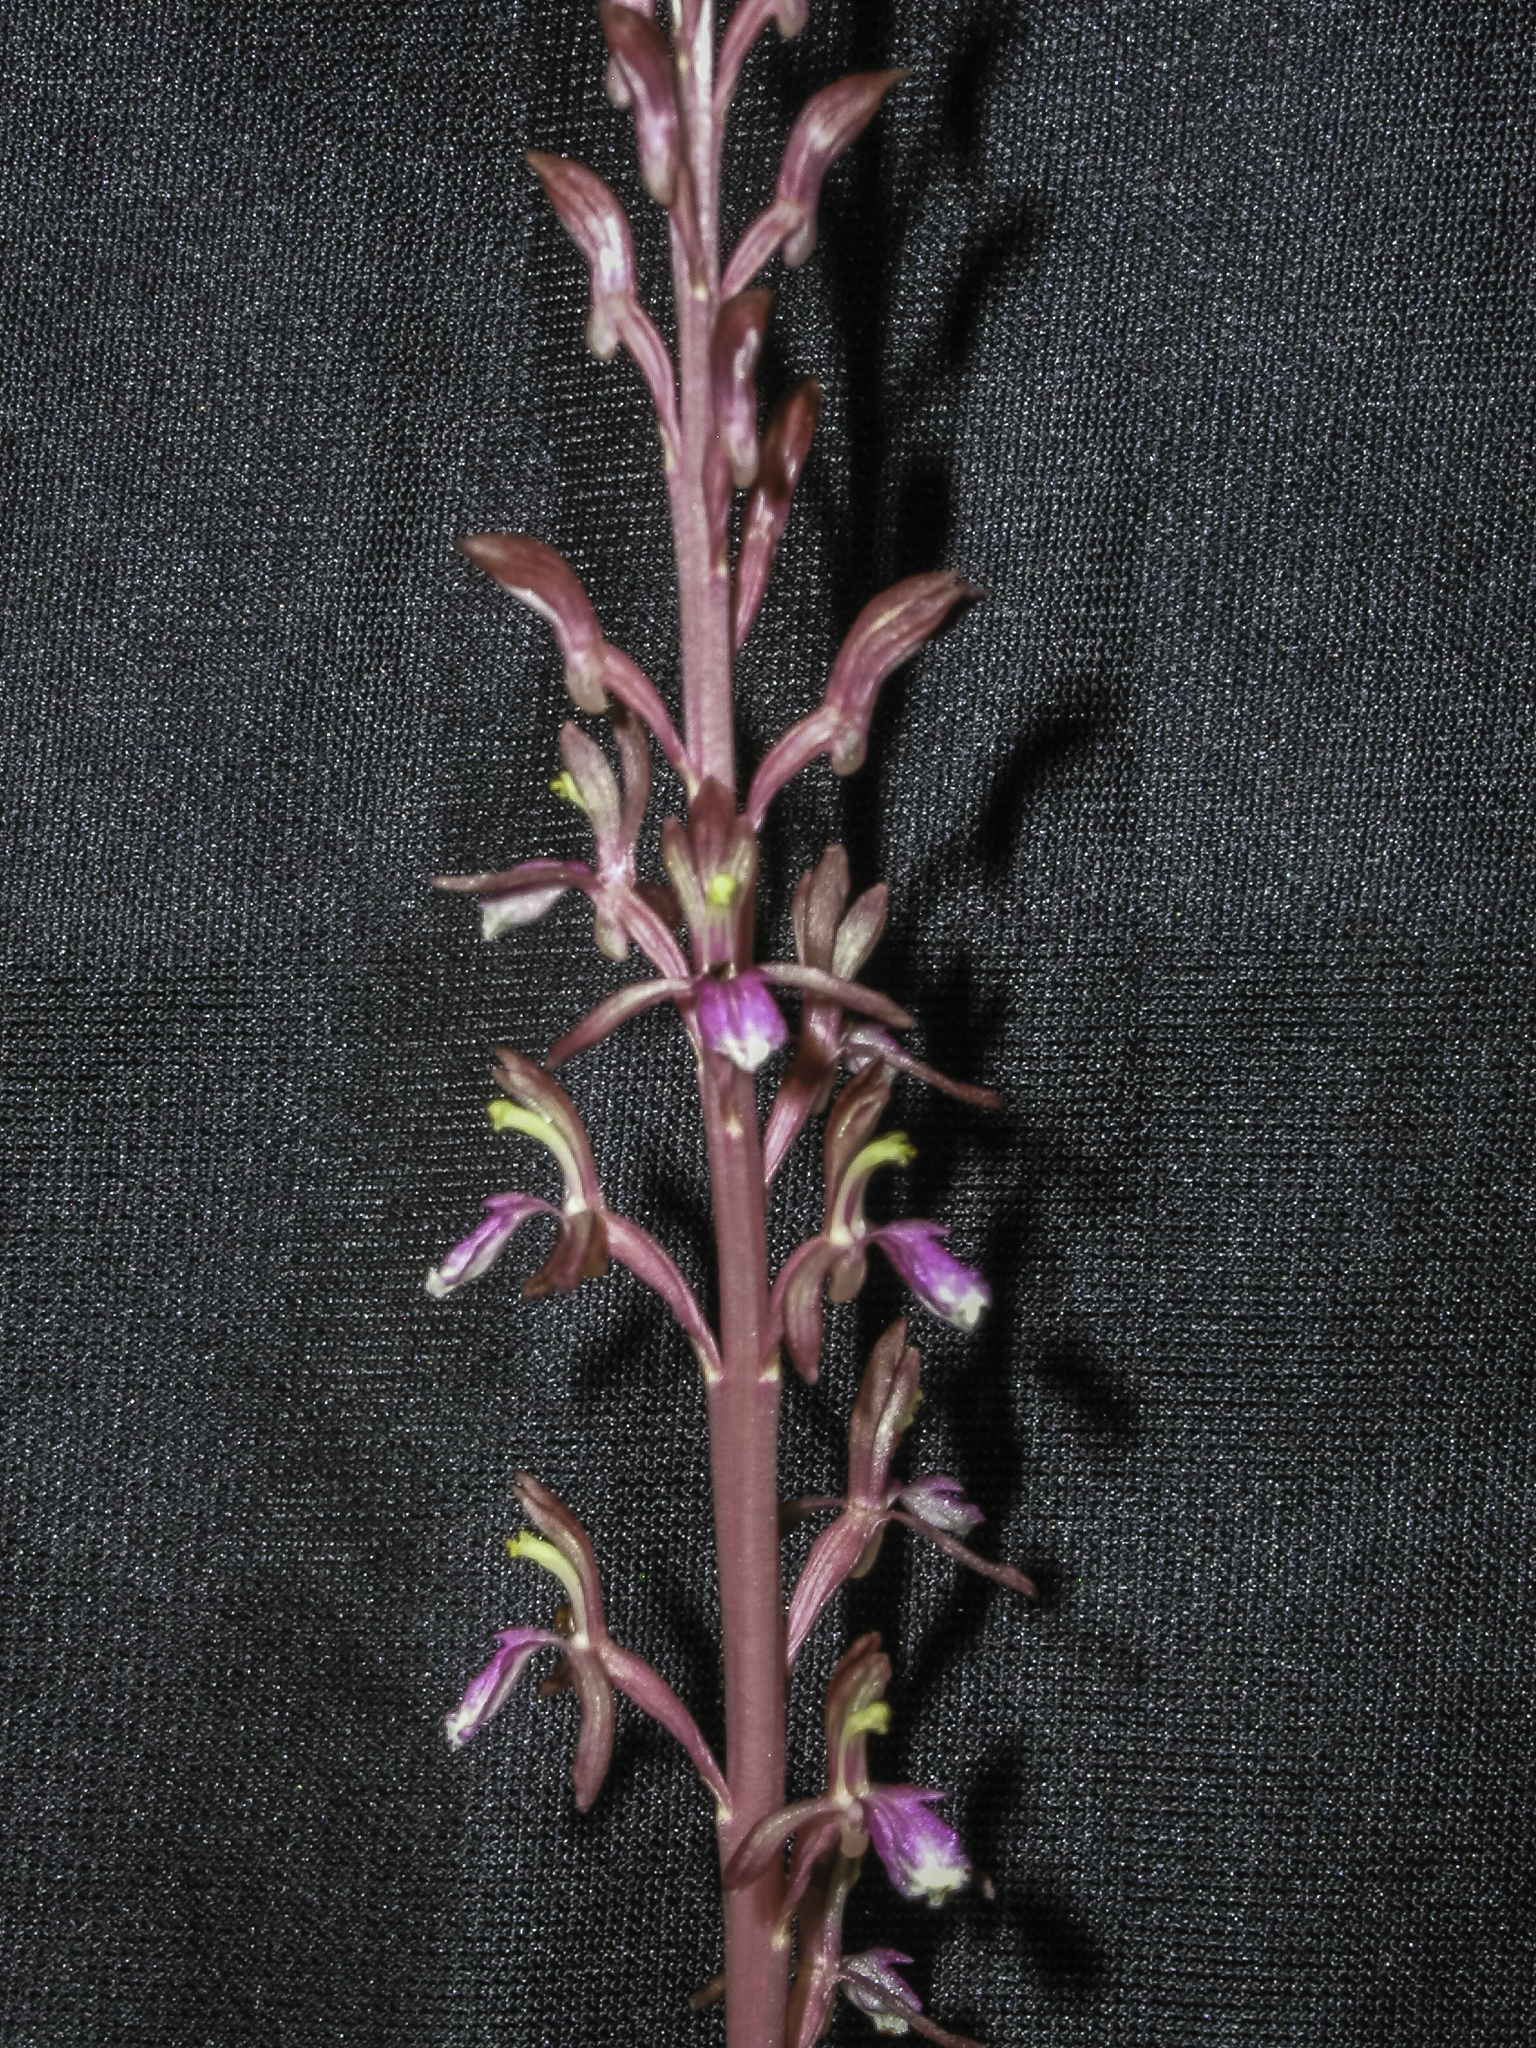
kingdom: Plantae
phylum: Tracheophyta
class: Liliopsida
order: Asparagales
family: Orchidaceae
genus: Corallorhiza
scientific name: Corallorhiza mertensiana
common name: Pacific coralroot
